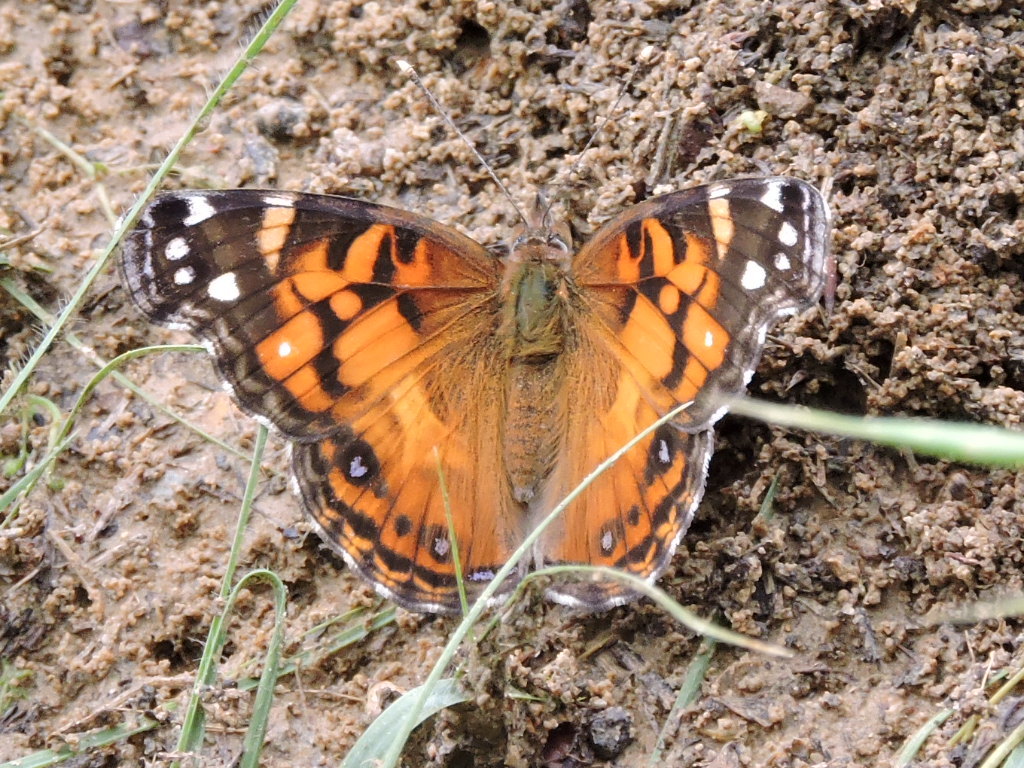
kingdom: Animalia
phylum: Arthropoda
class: Insecta
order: Lepidoptera
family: Nymphalidae
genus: Vanessa
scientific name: Vanessa virginiensis
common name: American lady
